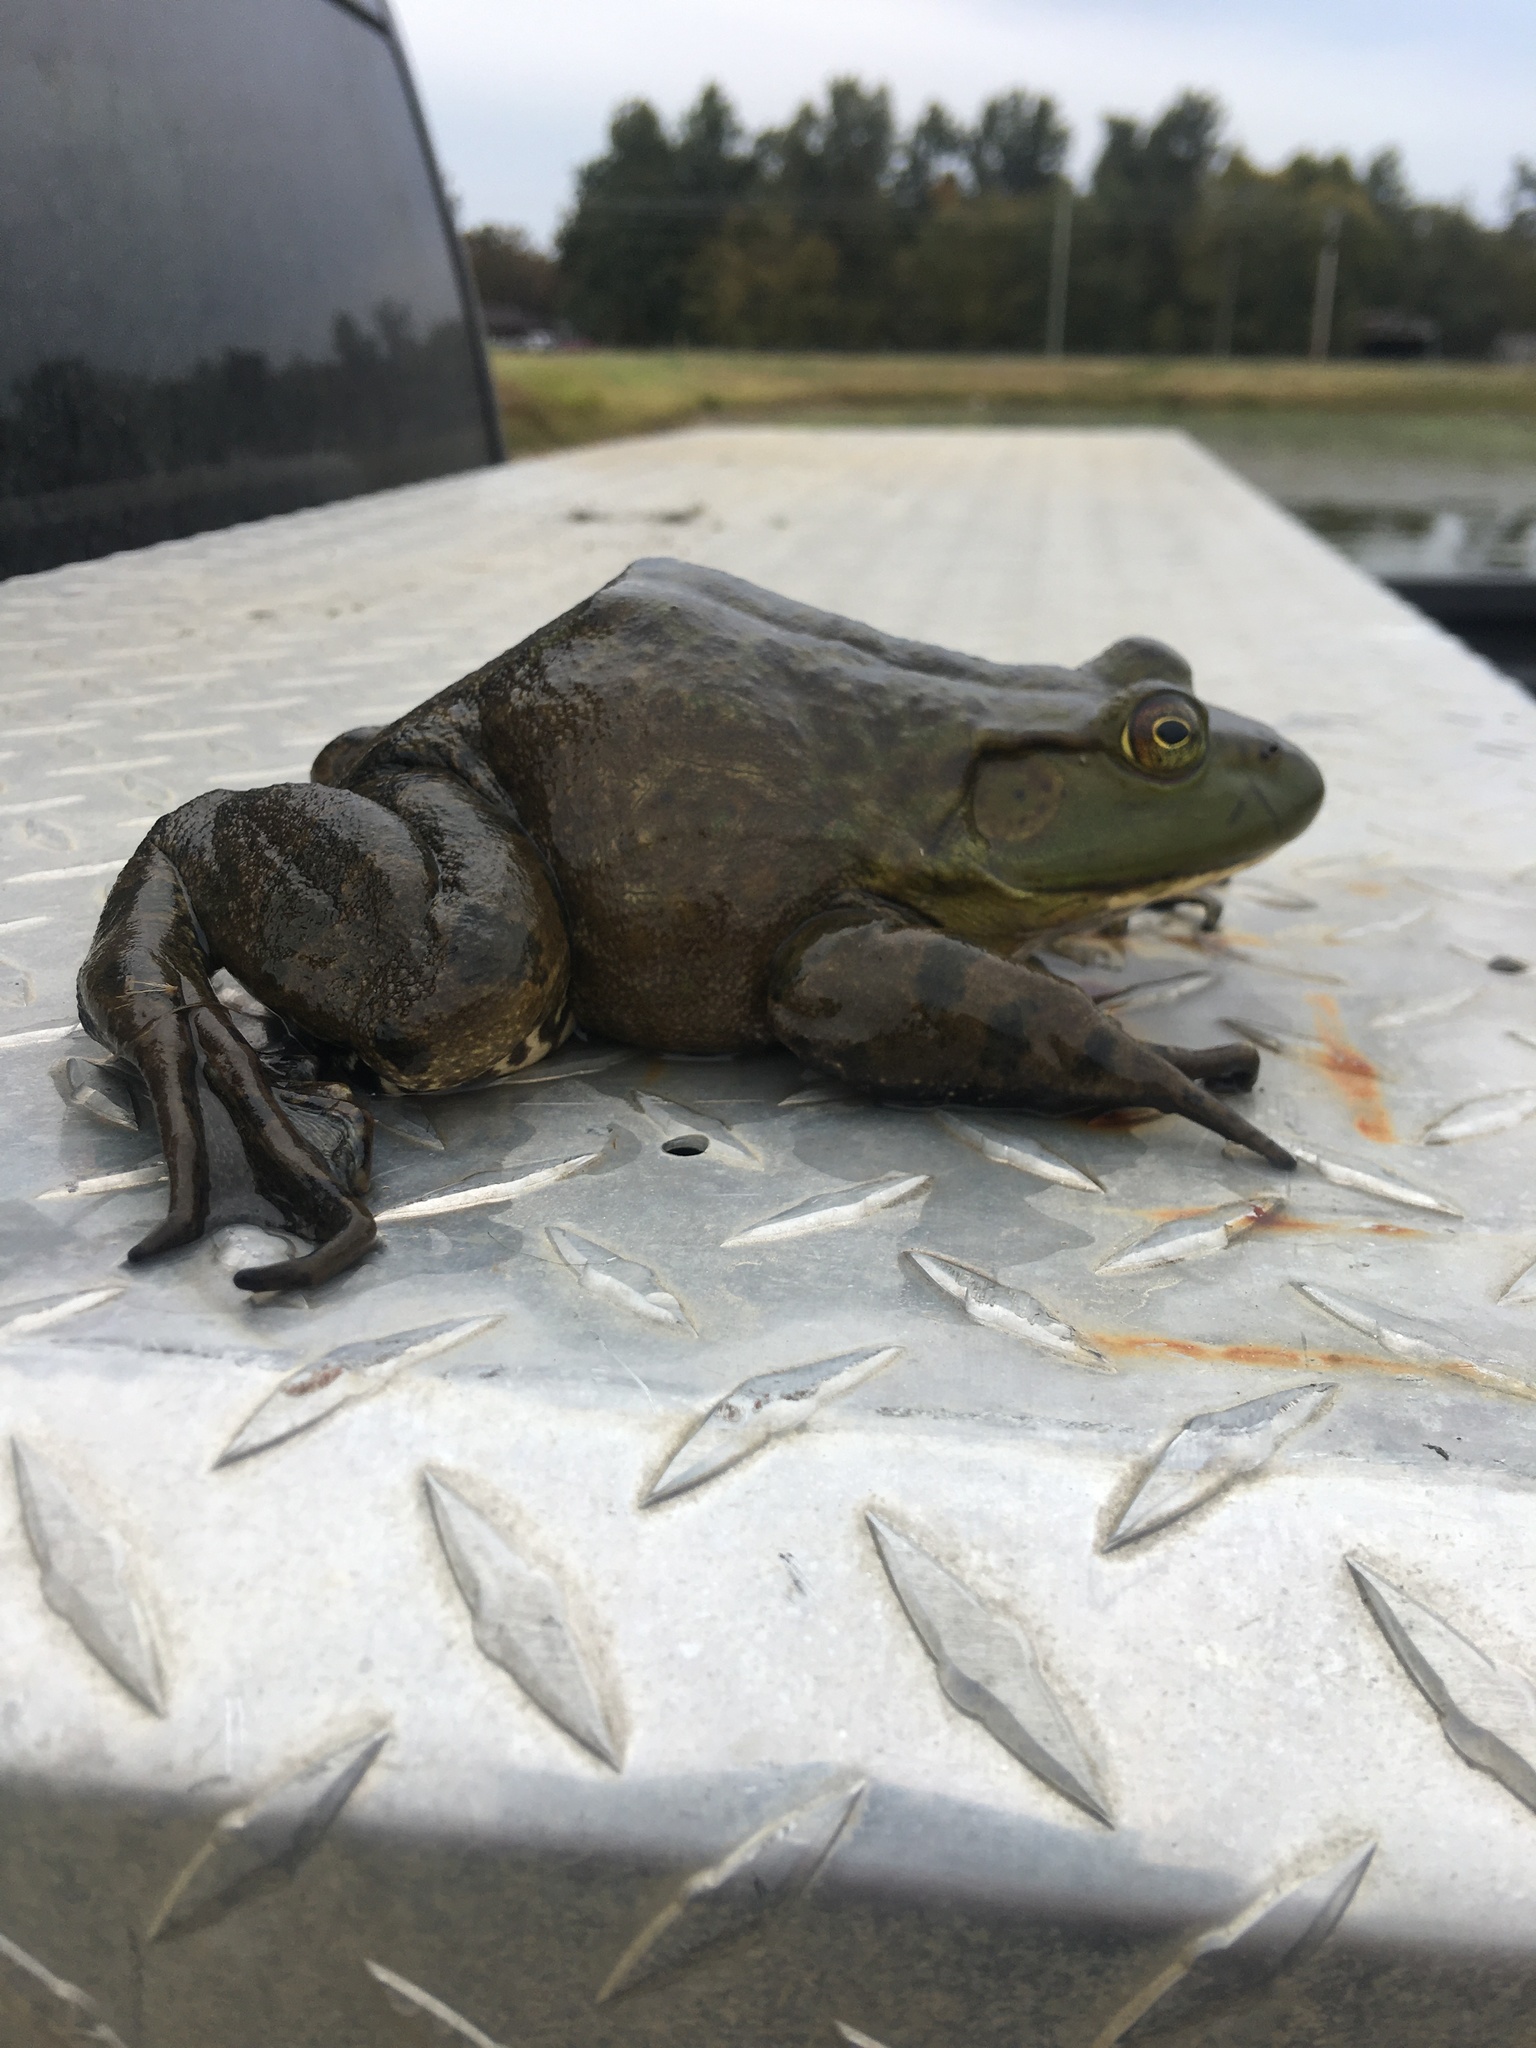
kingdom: Animalia
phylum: Chordata
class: Amphibia
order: Anura
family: Ranidae
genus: Lithobates
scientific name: Lithobates catesbeianus
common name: American bullfrog
